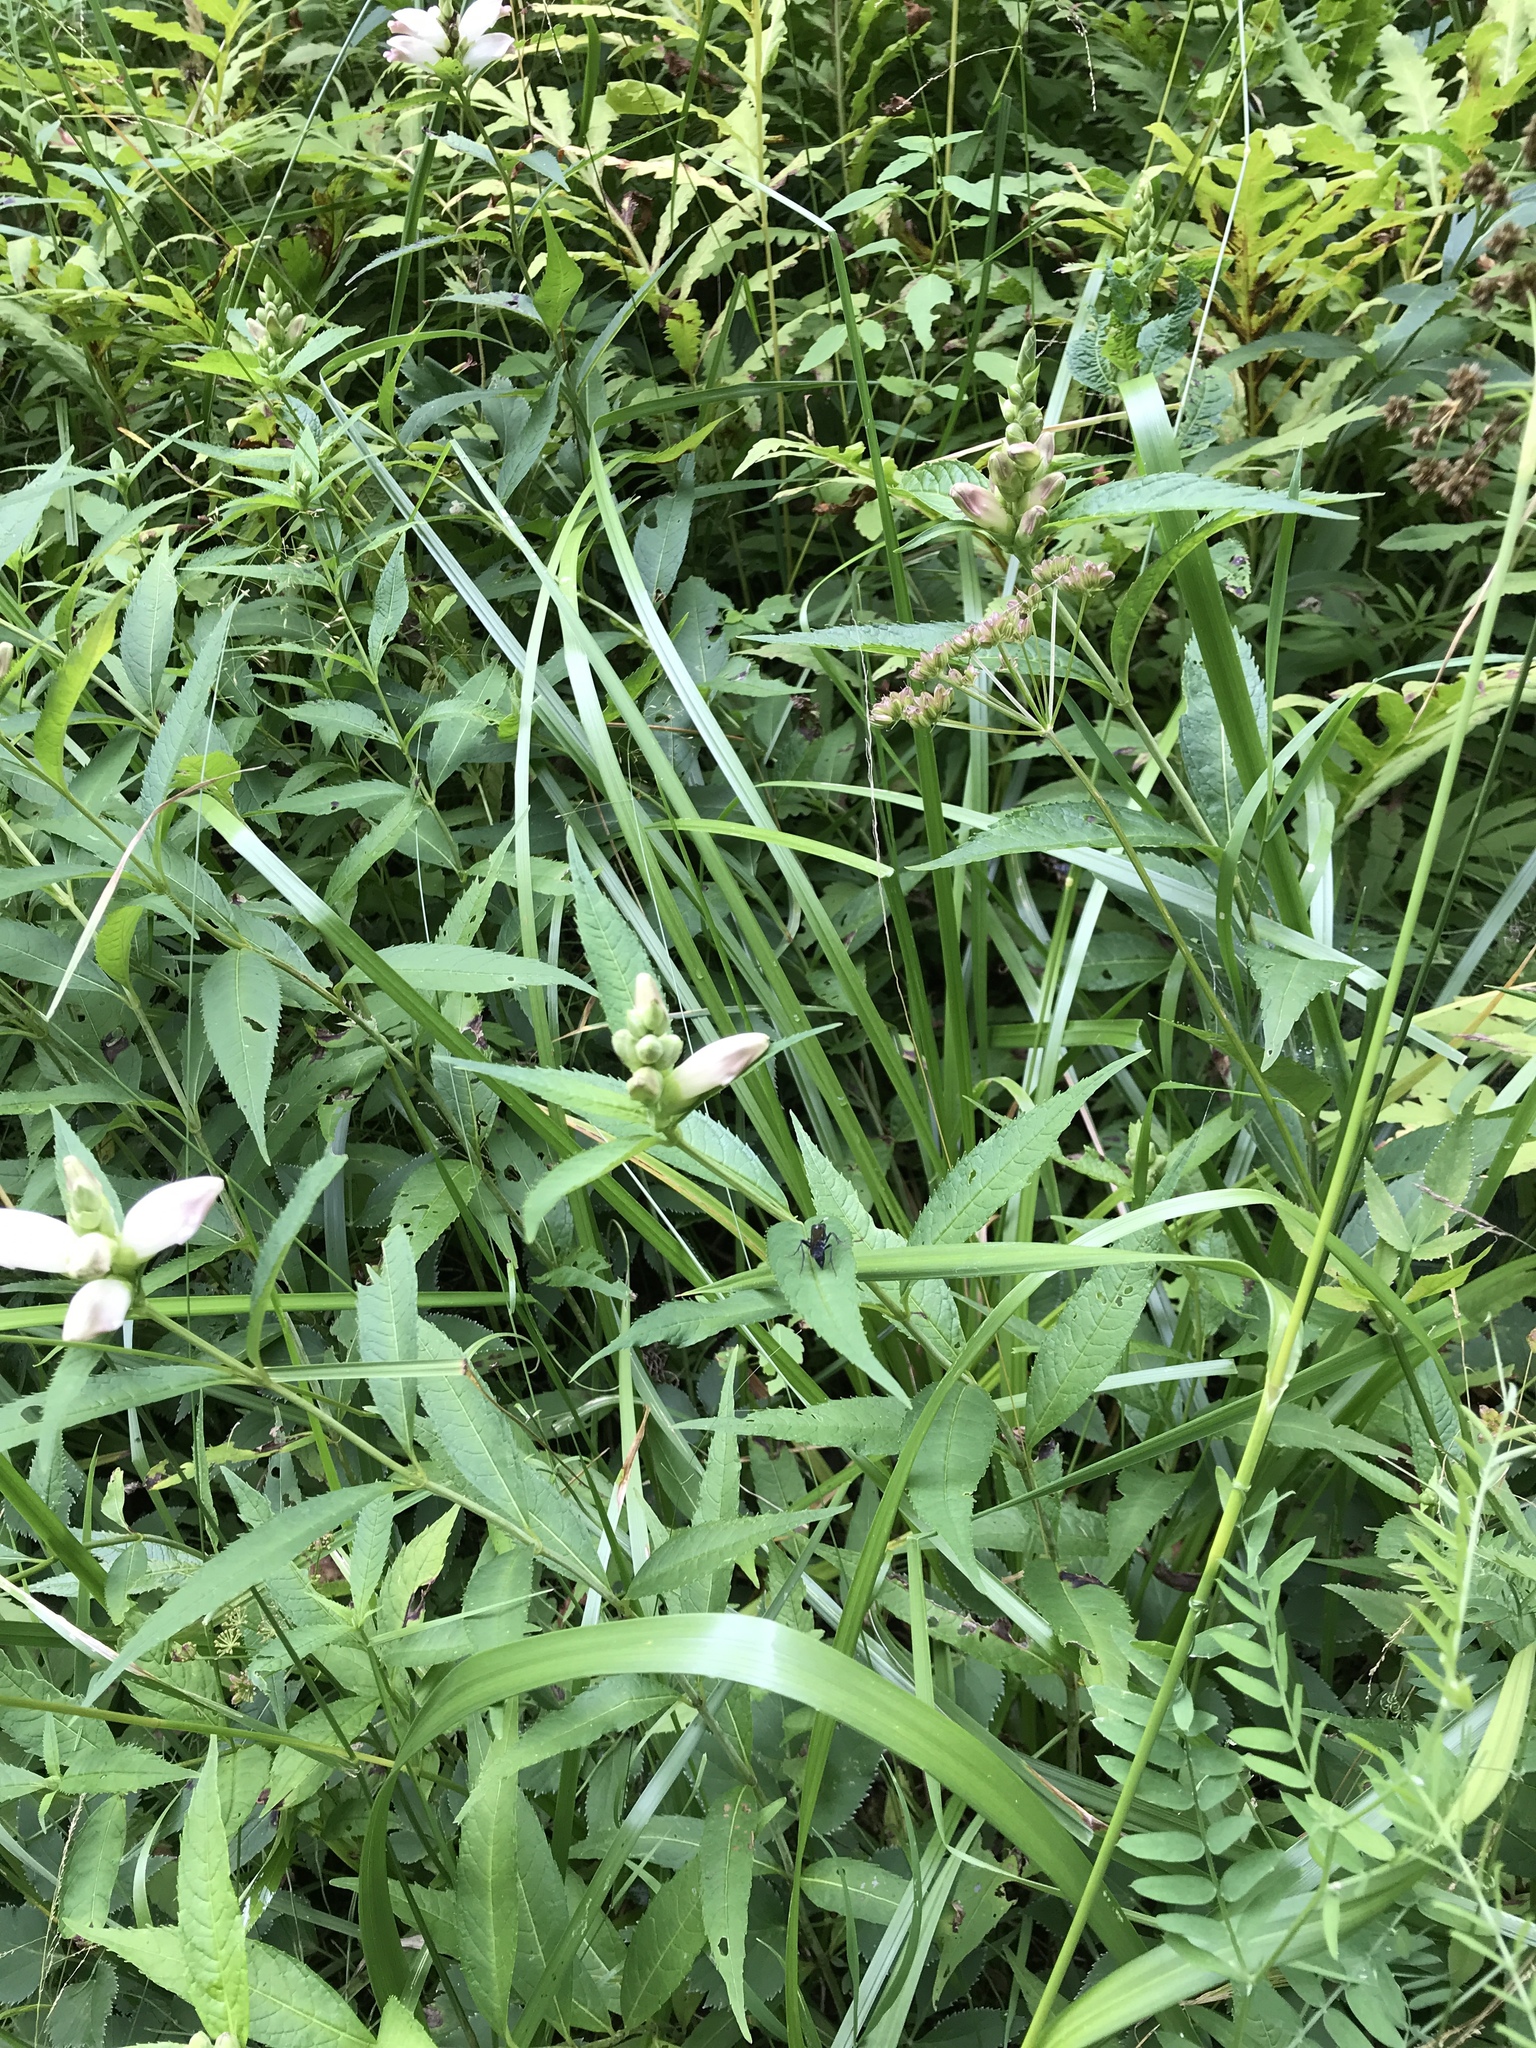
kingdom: Plantae
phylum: Tracheophyta
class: Magnoliopsida
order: Lamiales
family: Plantaginaceae
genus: Chelone
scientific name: Chelone glabra
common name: Snakehead
